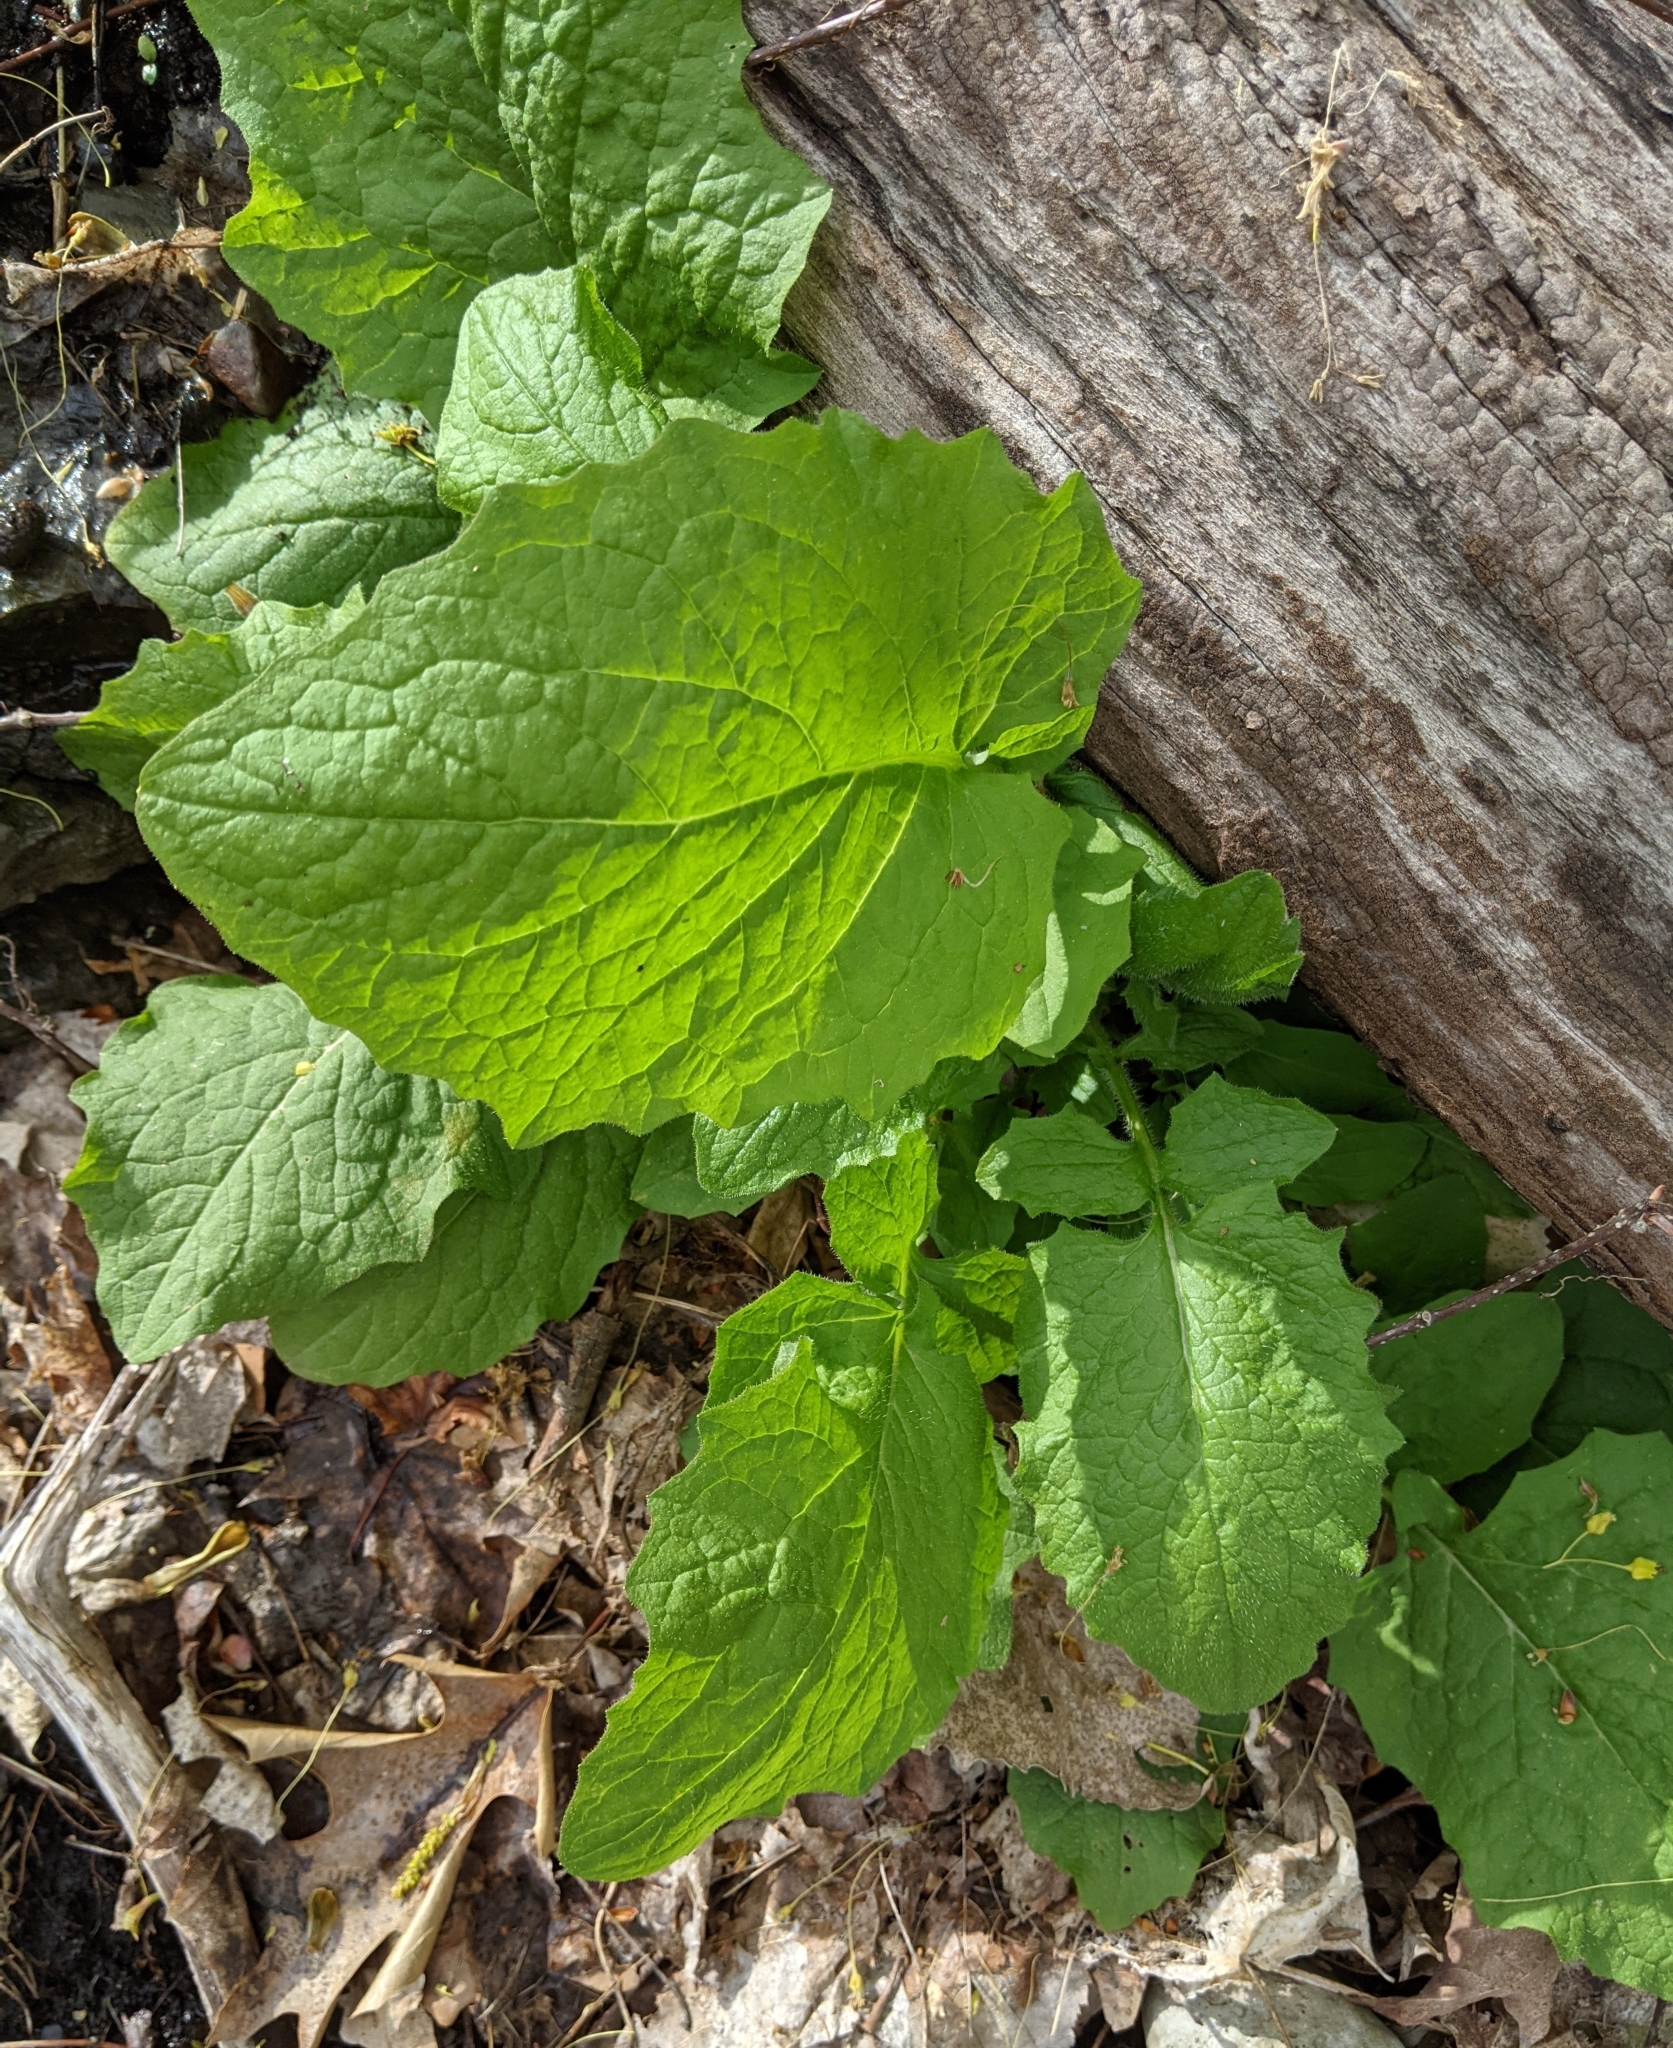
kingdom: Plantae
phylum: Tracheophyta
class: Magnoliopsida
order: Asterales
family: Asteraceae
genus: Lapsana
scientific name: Lapsana communis
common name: Nipplewort
